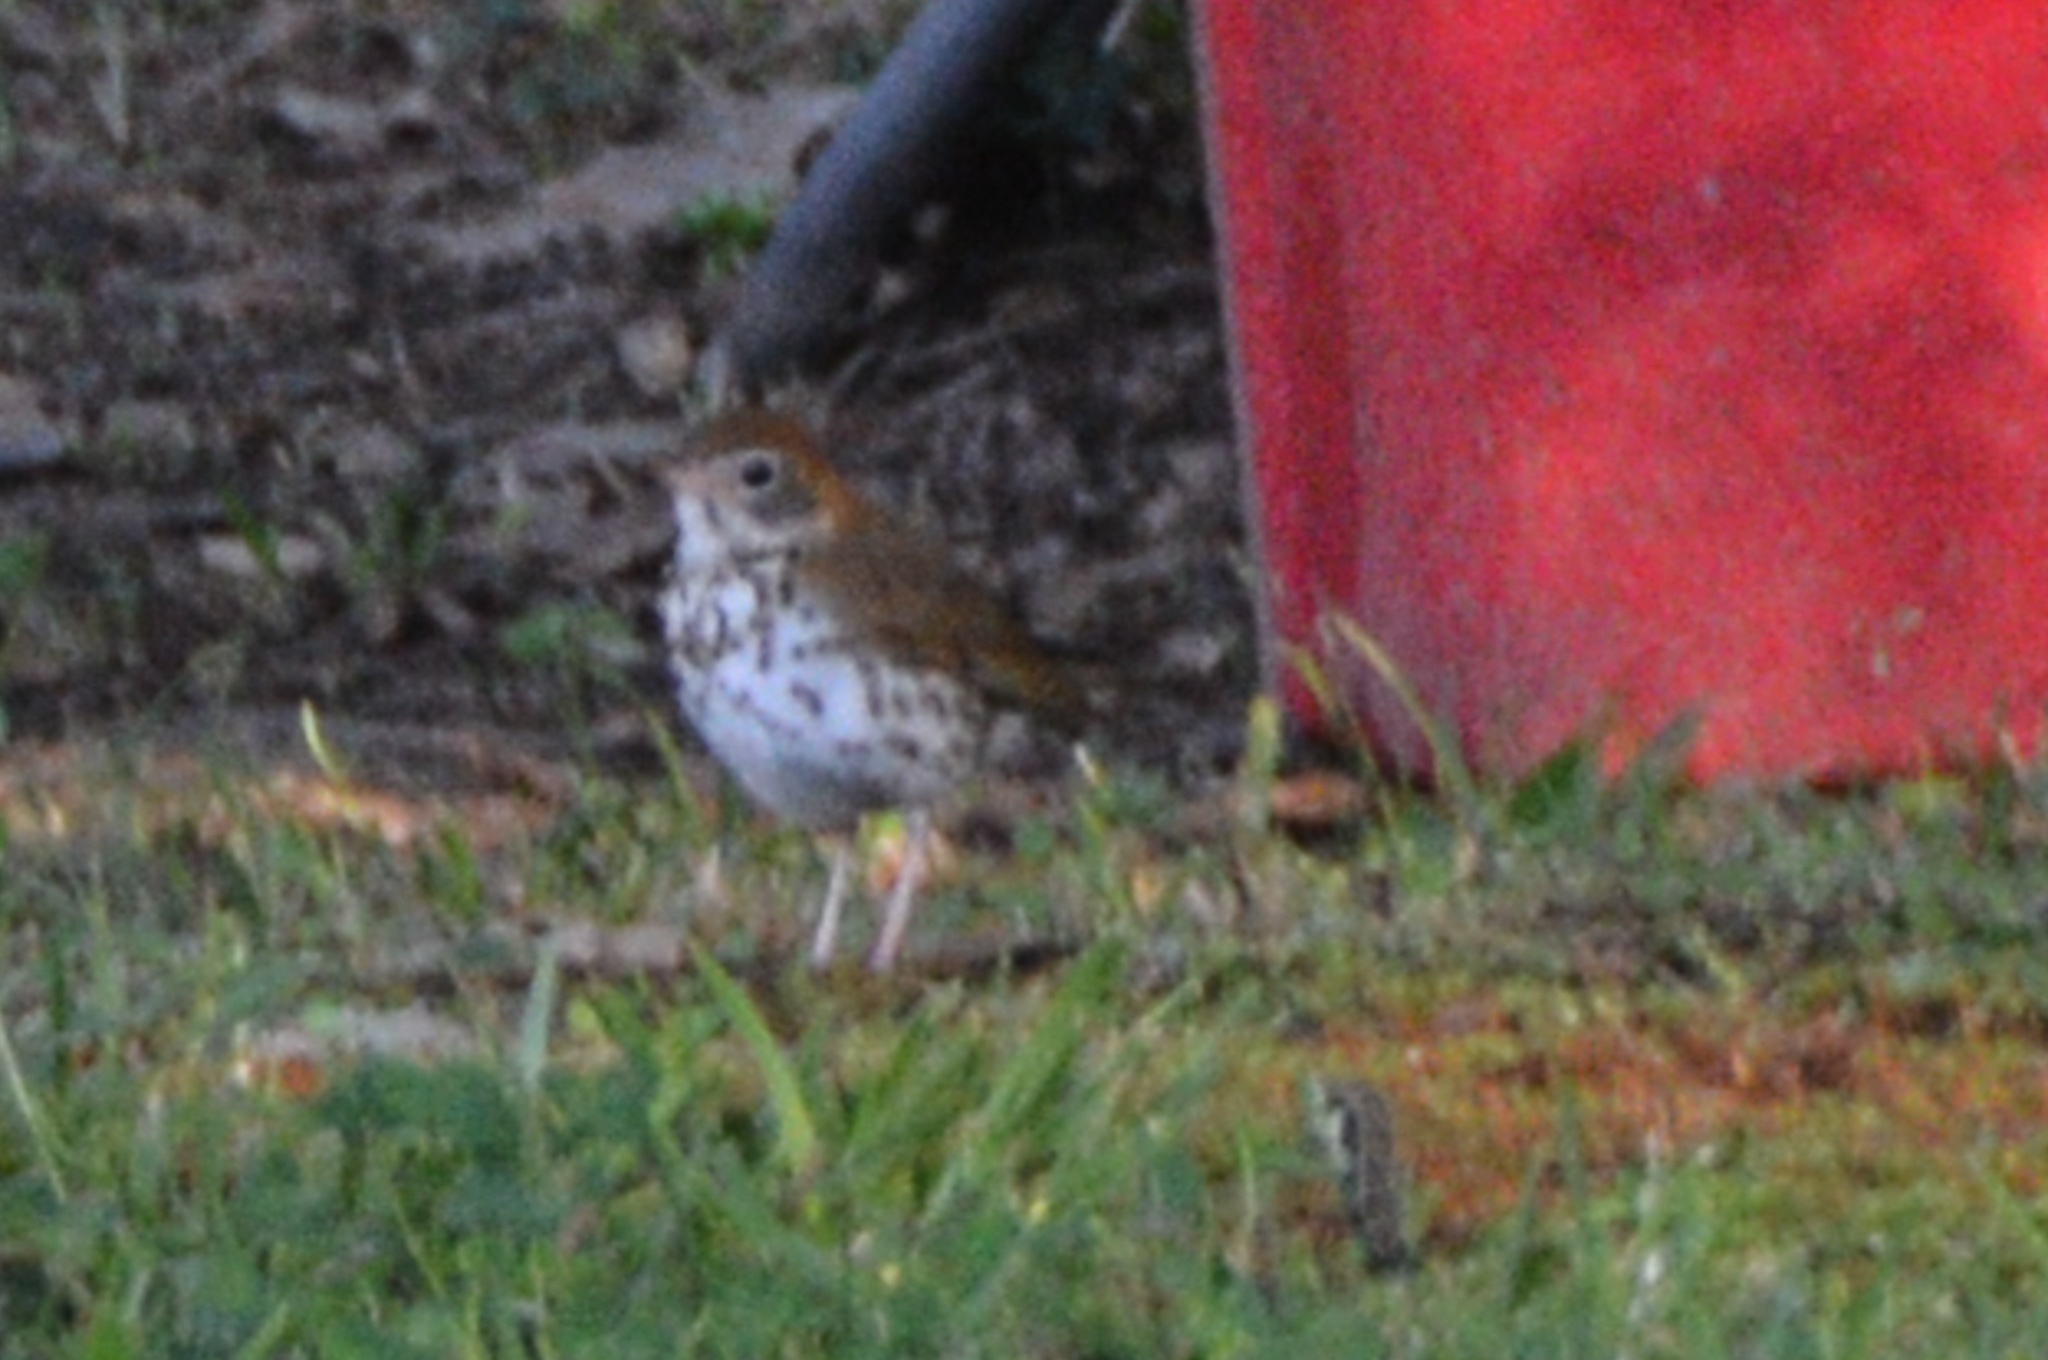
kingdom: Animalia
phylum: Chordata
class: Aves
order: Passeriformes
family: Turdidae
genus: Hylocichla
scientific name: Hylocichla mustelina
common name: Wood thrush
